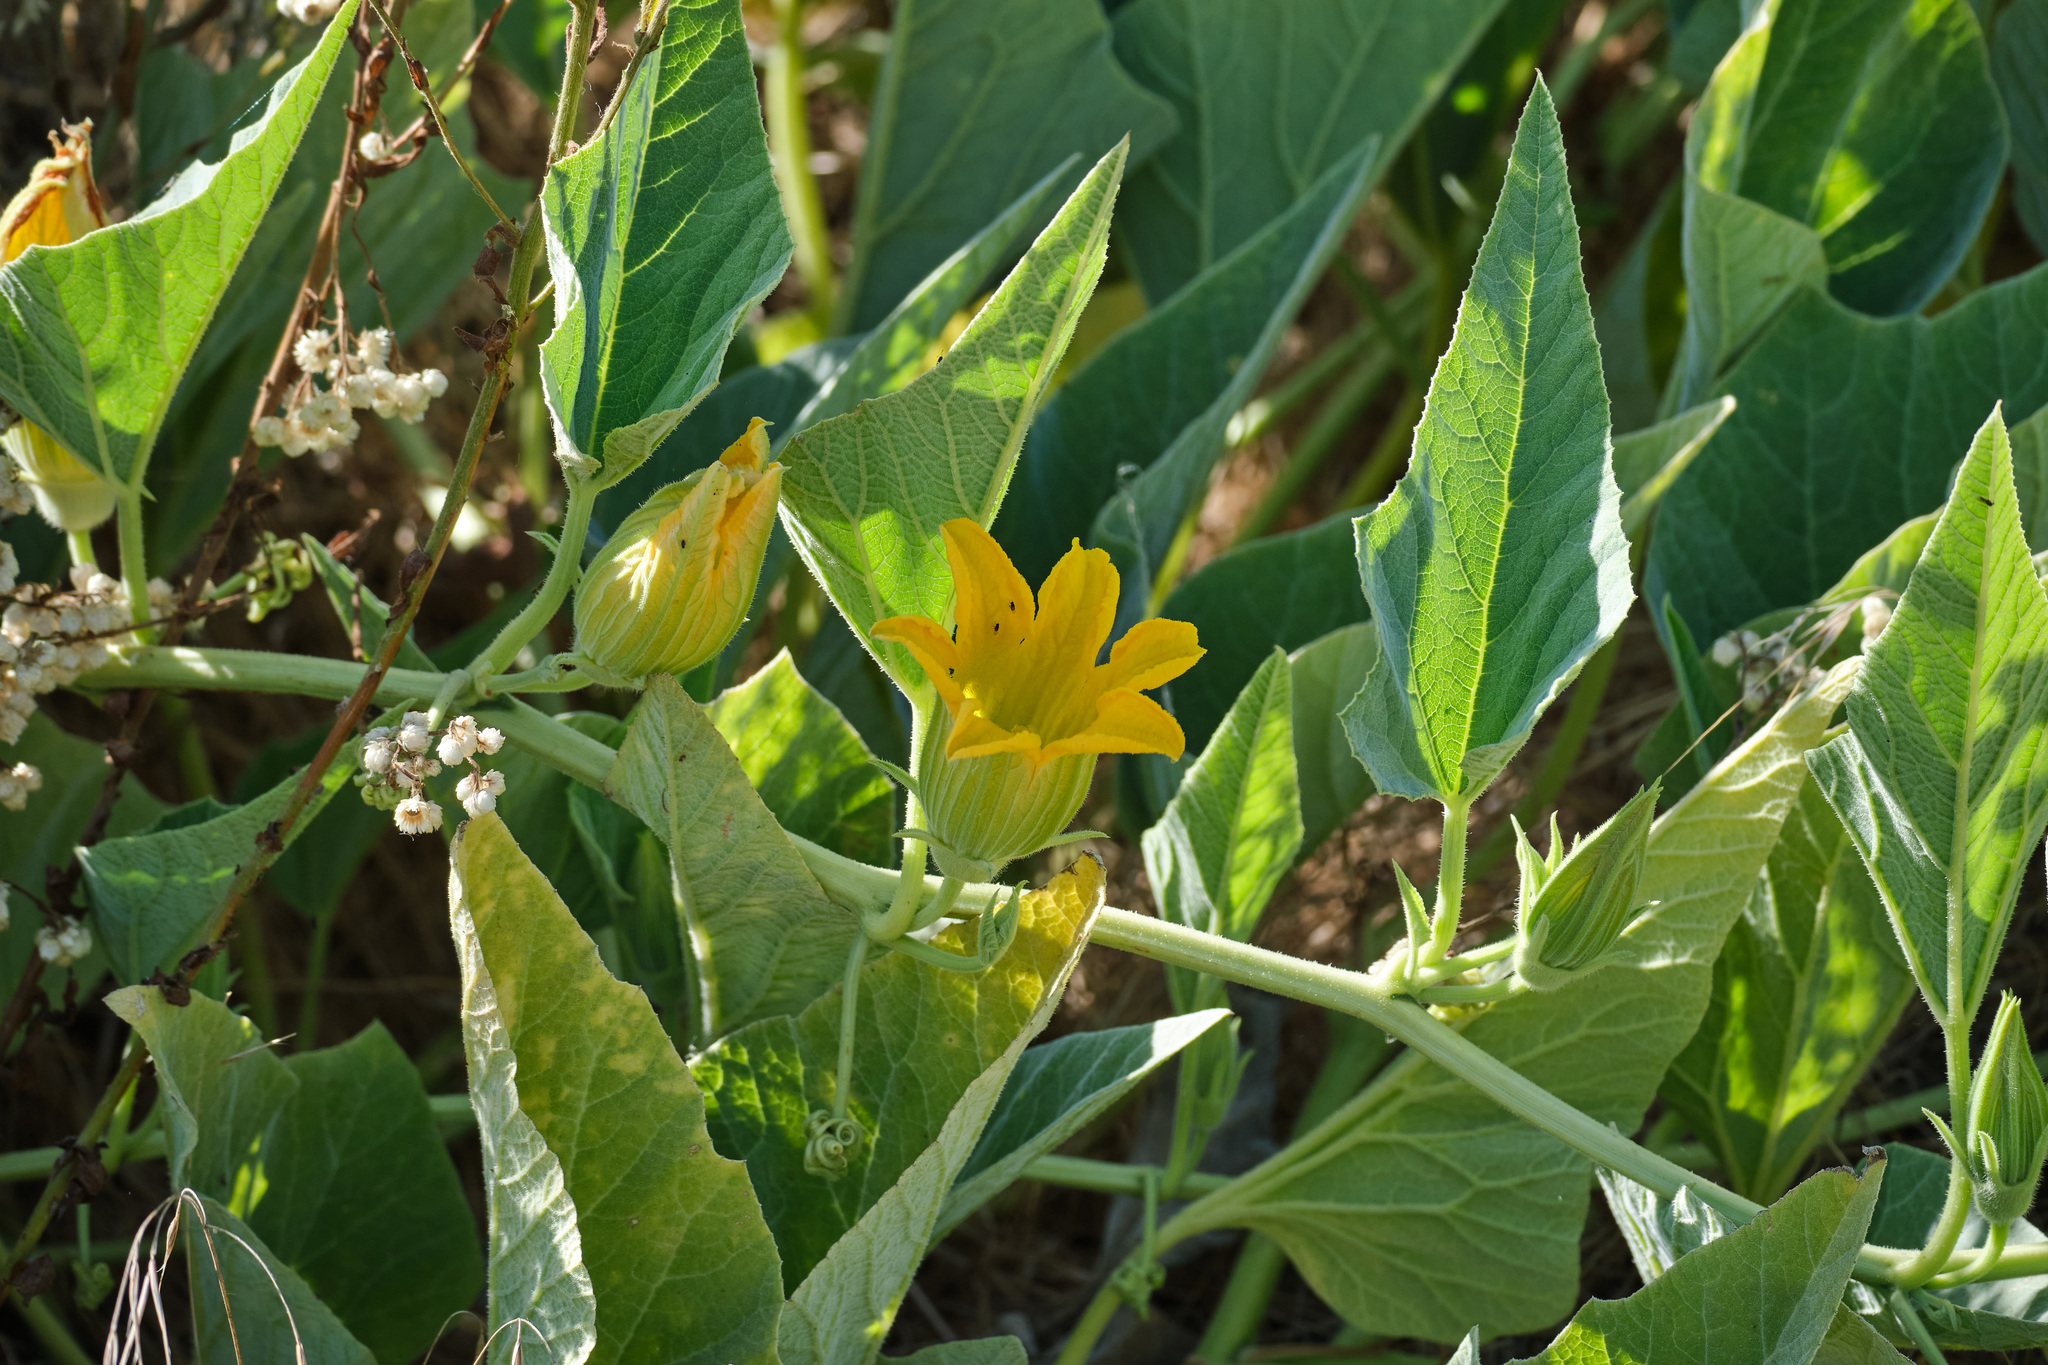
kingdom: Plantae
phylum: Tracheophyta
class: Magnoliopsida
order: Cucurbitales
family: Cucurbitaceae
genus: Cucurbita
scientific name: Cucurbita foetidissima
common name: Buffalo gourd
